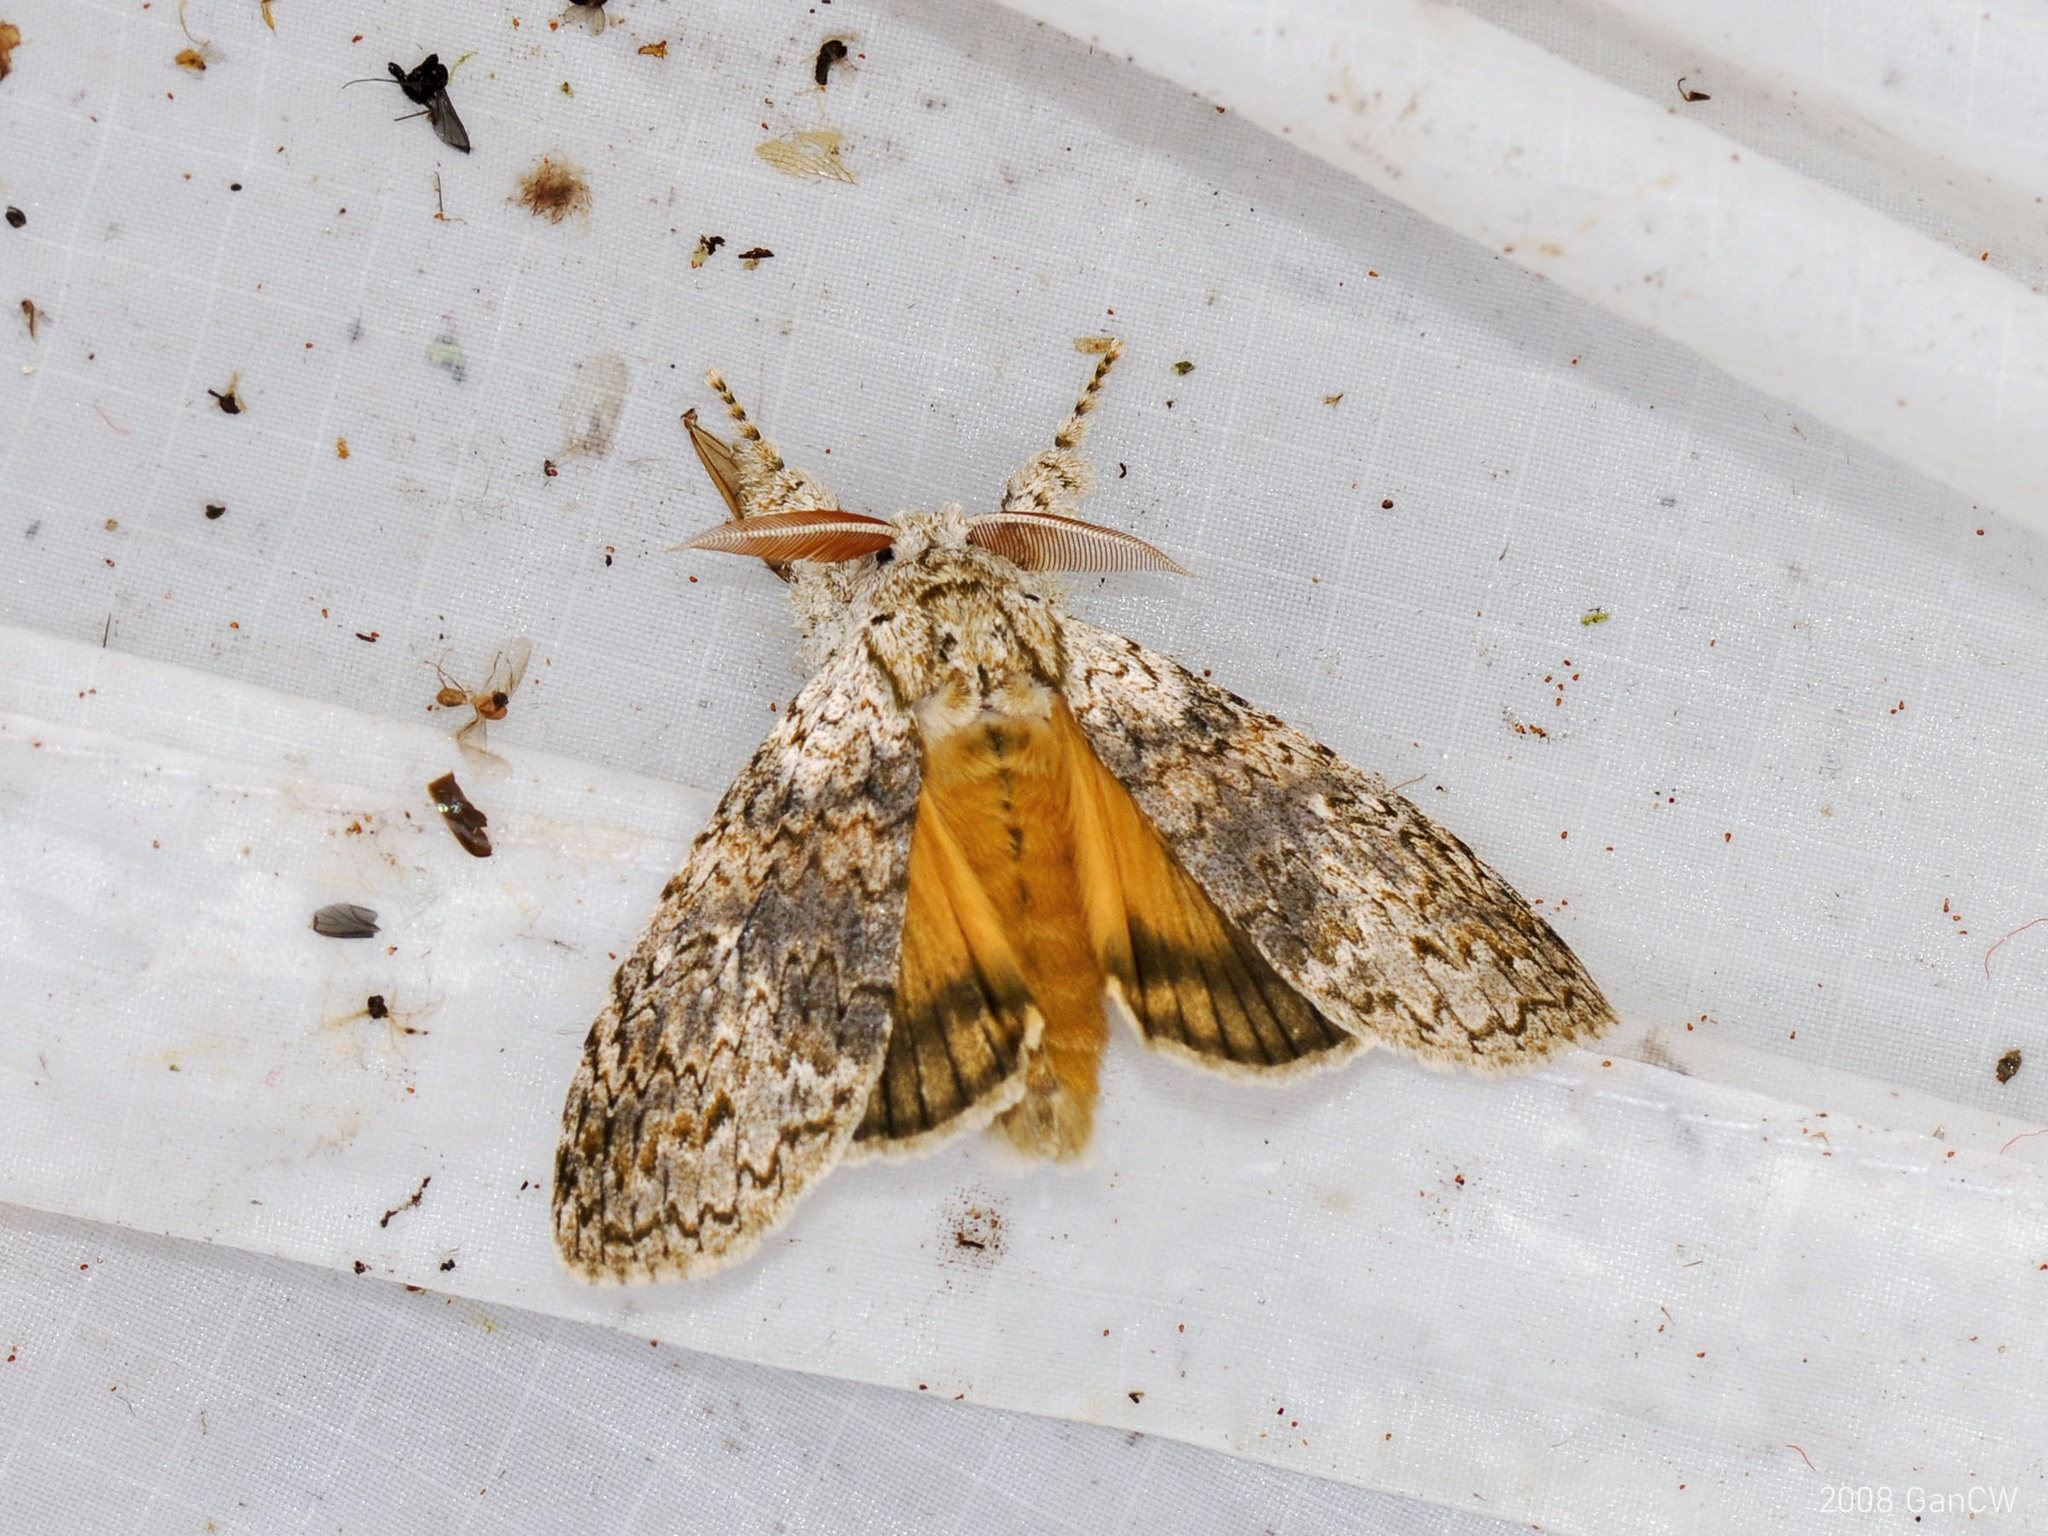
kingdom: Animalia
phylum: Arthropoda
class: Insecta
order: Lepidoptera
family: Erebidae
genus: Calliteara
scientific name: Calliteara strigata
